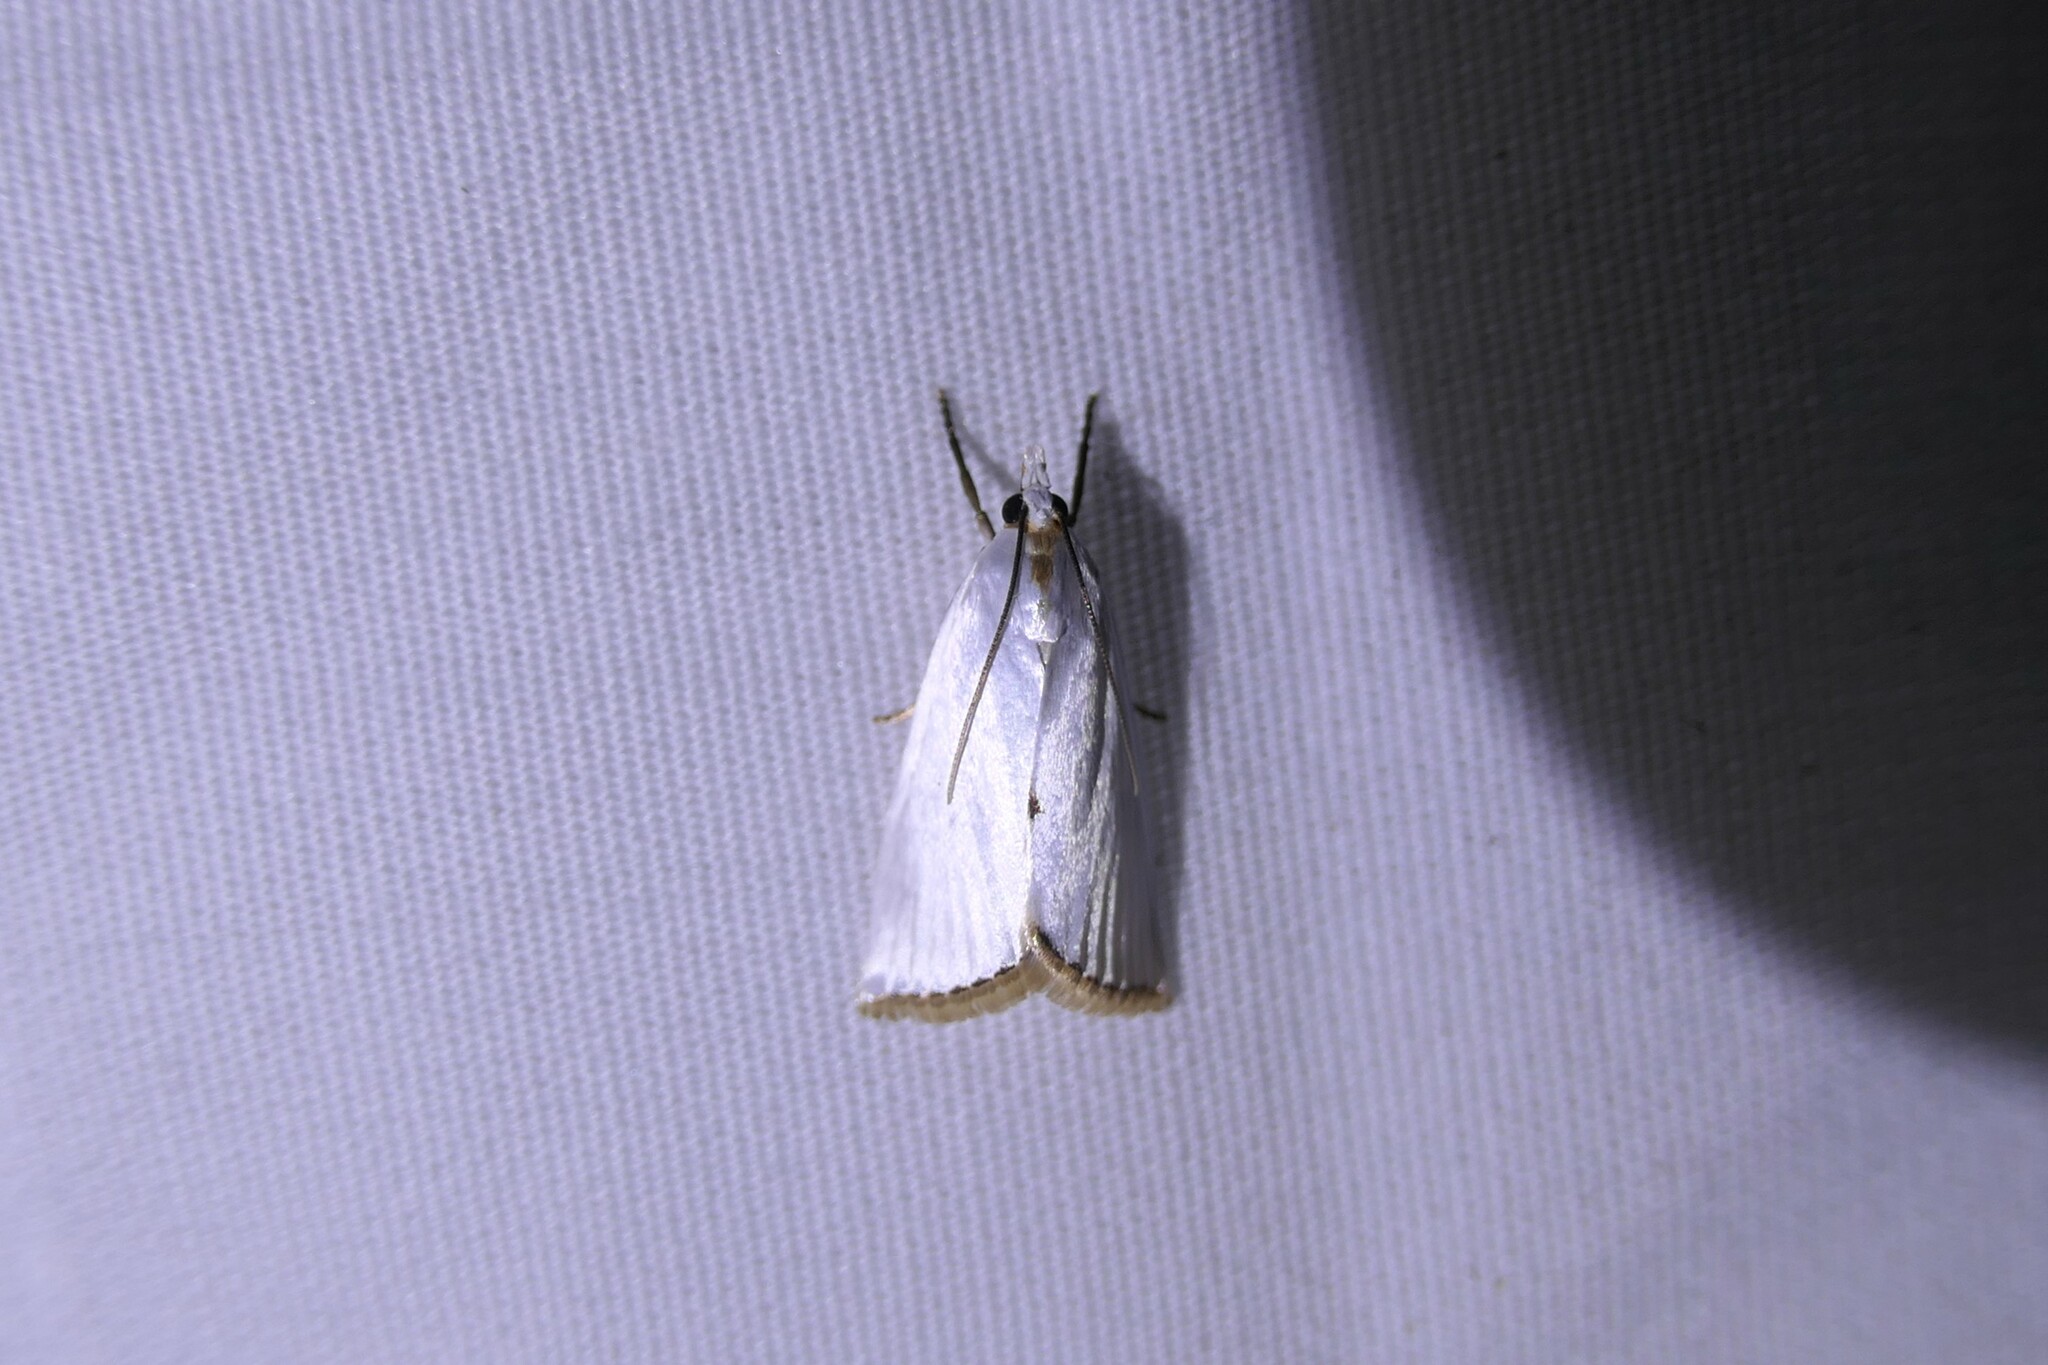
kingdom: Animalia
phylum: Arthropoda
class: Insecta
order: Lepidoptera
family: Crambidae
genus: Argyria
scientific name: Argyria nivalis
